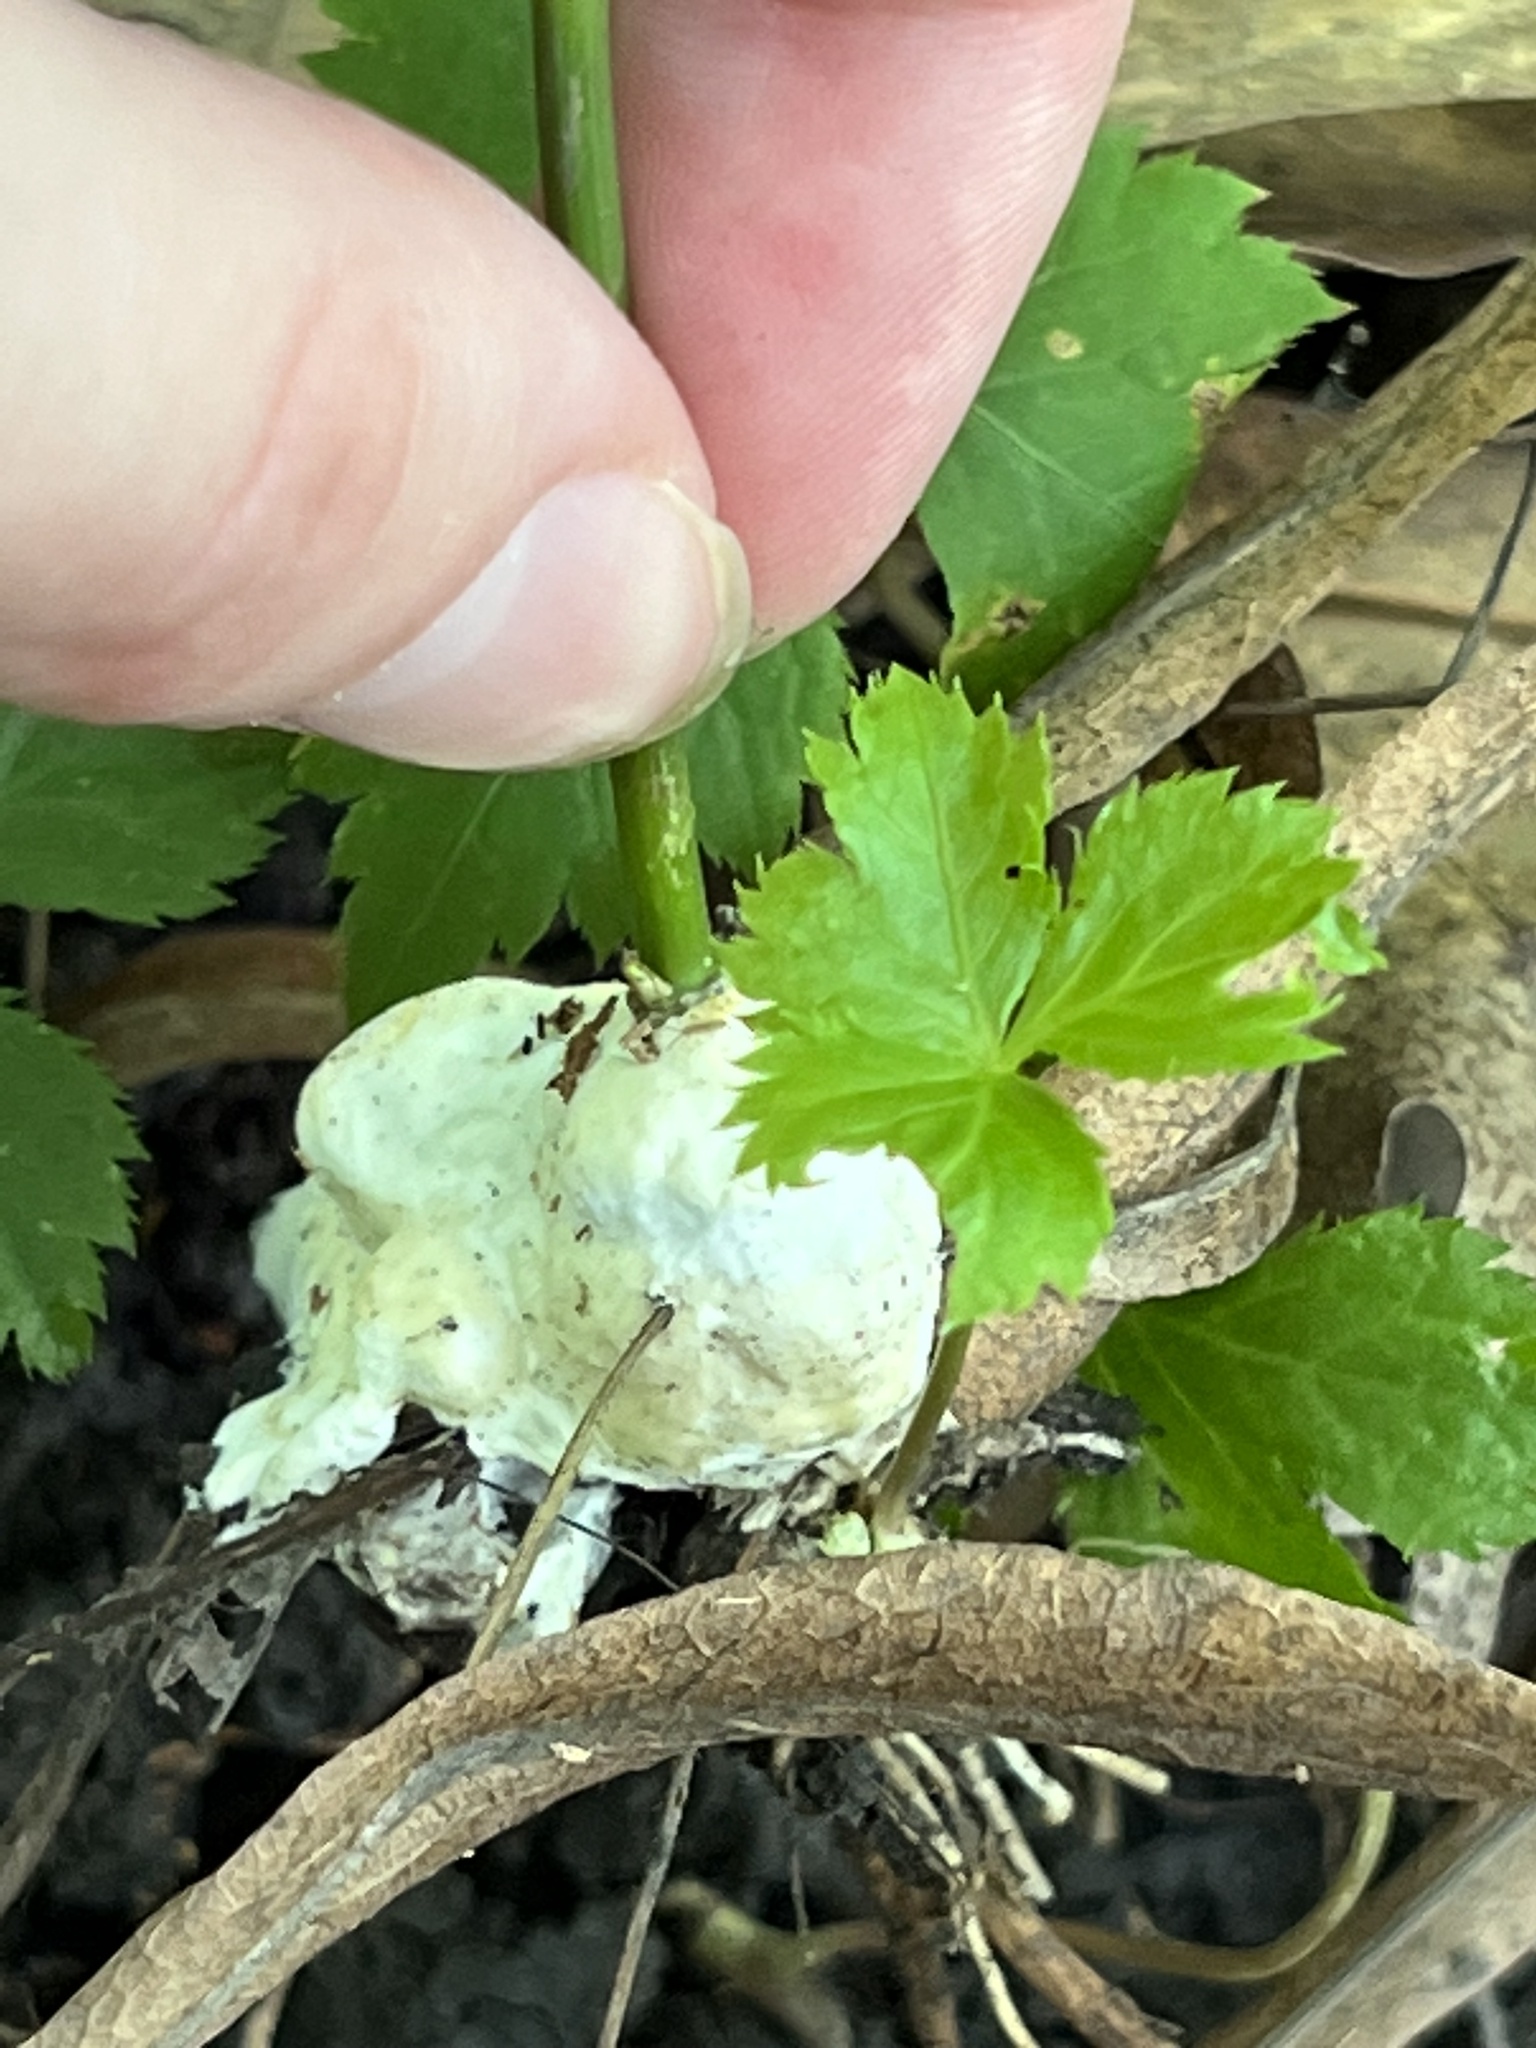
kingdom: Fungi
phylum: Basidiomycota
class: Agaricomycetes
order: Sebacinales
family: Sebacinaceae
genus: Sebacina
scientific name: Sebacina incrustans
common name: Enveloping crust
